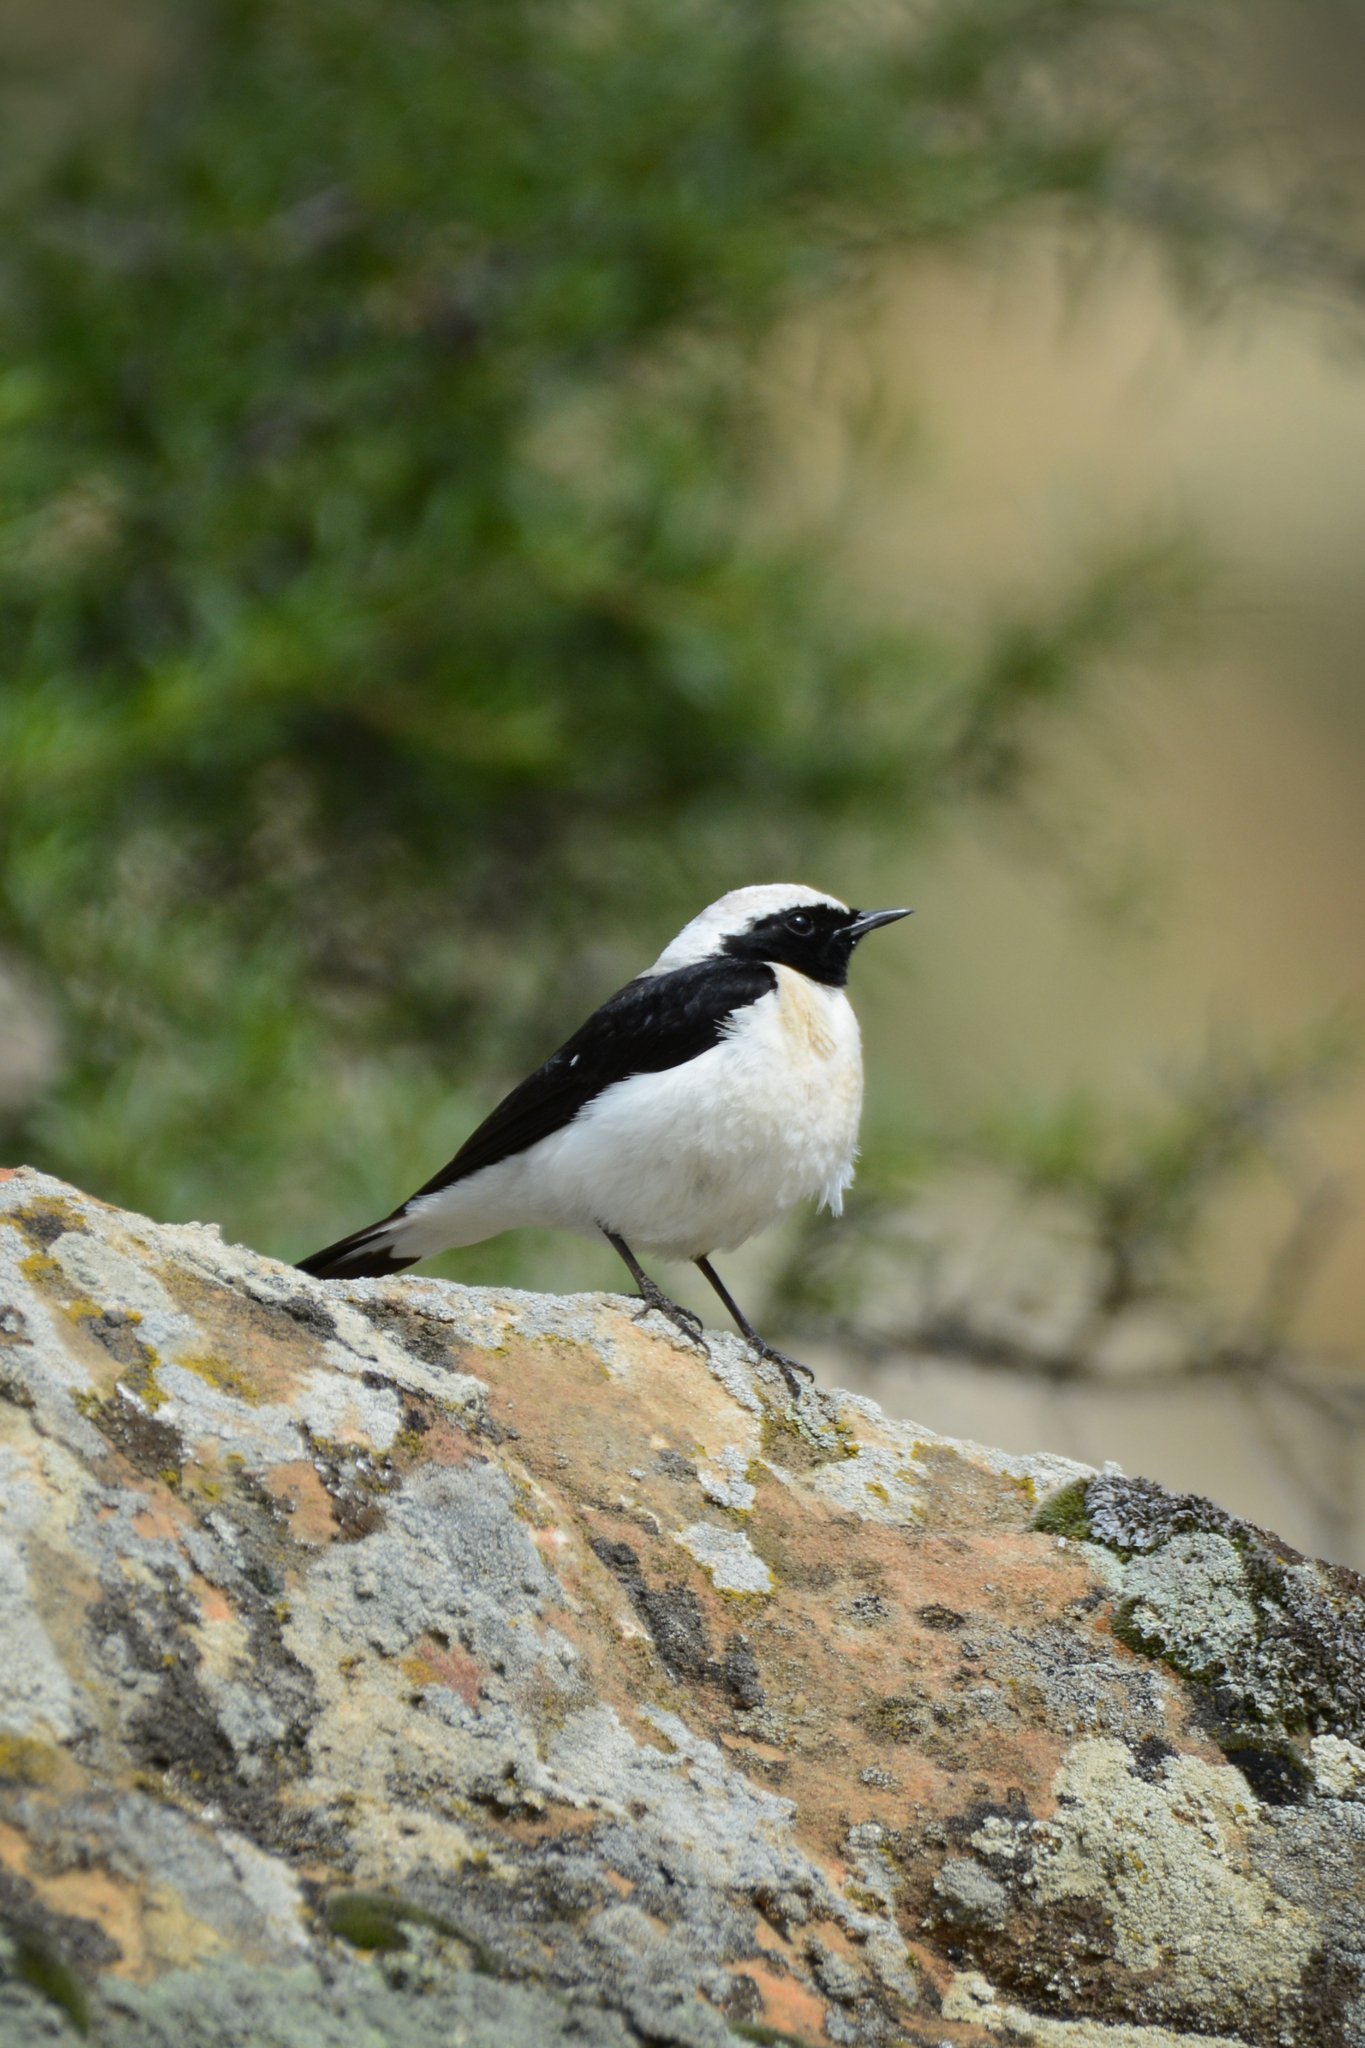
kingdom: Animalia
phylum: Chordata
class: Aves
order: Passeriformes
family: Muscicapidae
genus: Oenanthe
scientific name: Oenanthe hispanica
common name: Black-eared wheatear
